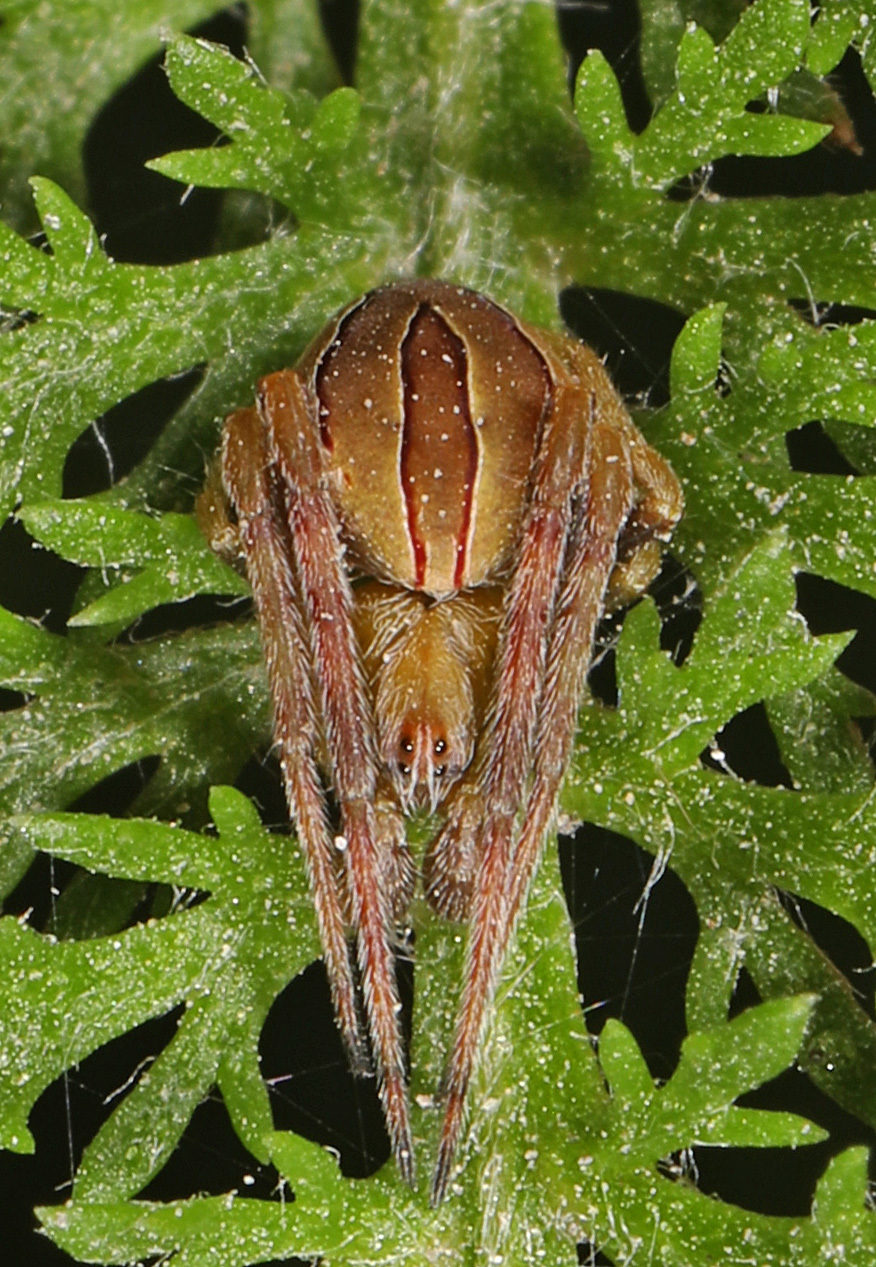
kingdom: Animalia
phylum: Arthropoda
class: Arachnida
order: Araneae
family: Araneidae
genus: Acacesia
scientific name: Acacesia hamata
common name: Orb weavers
